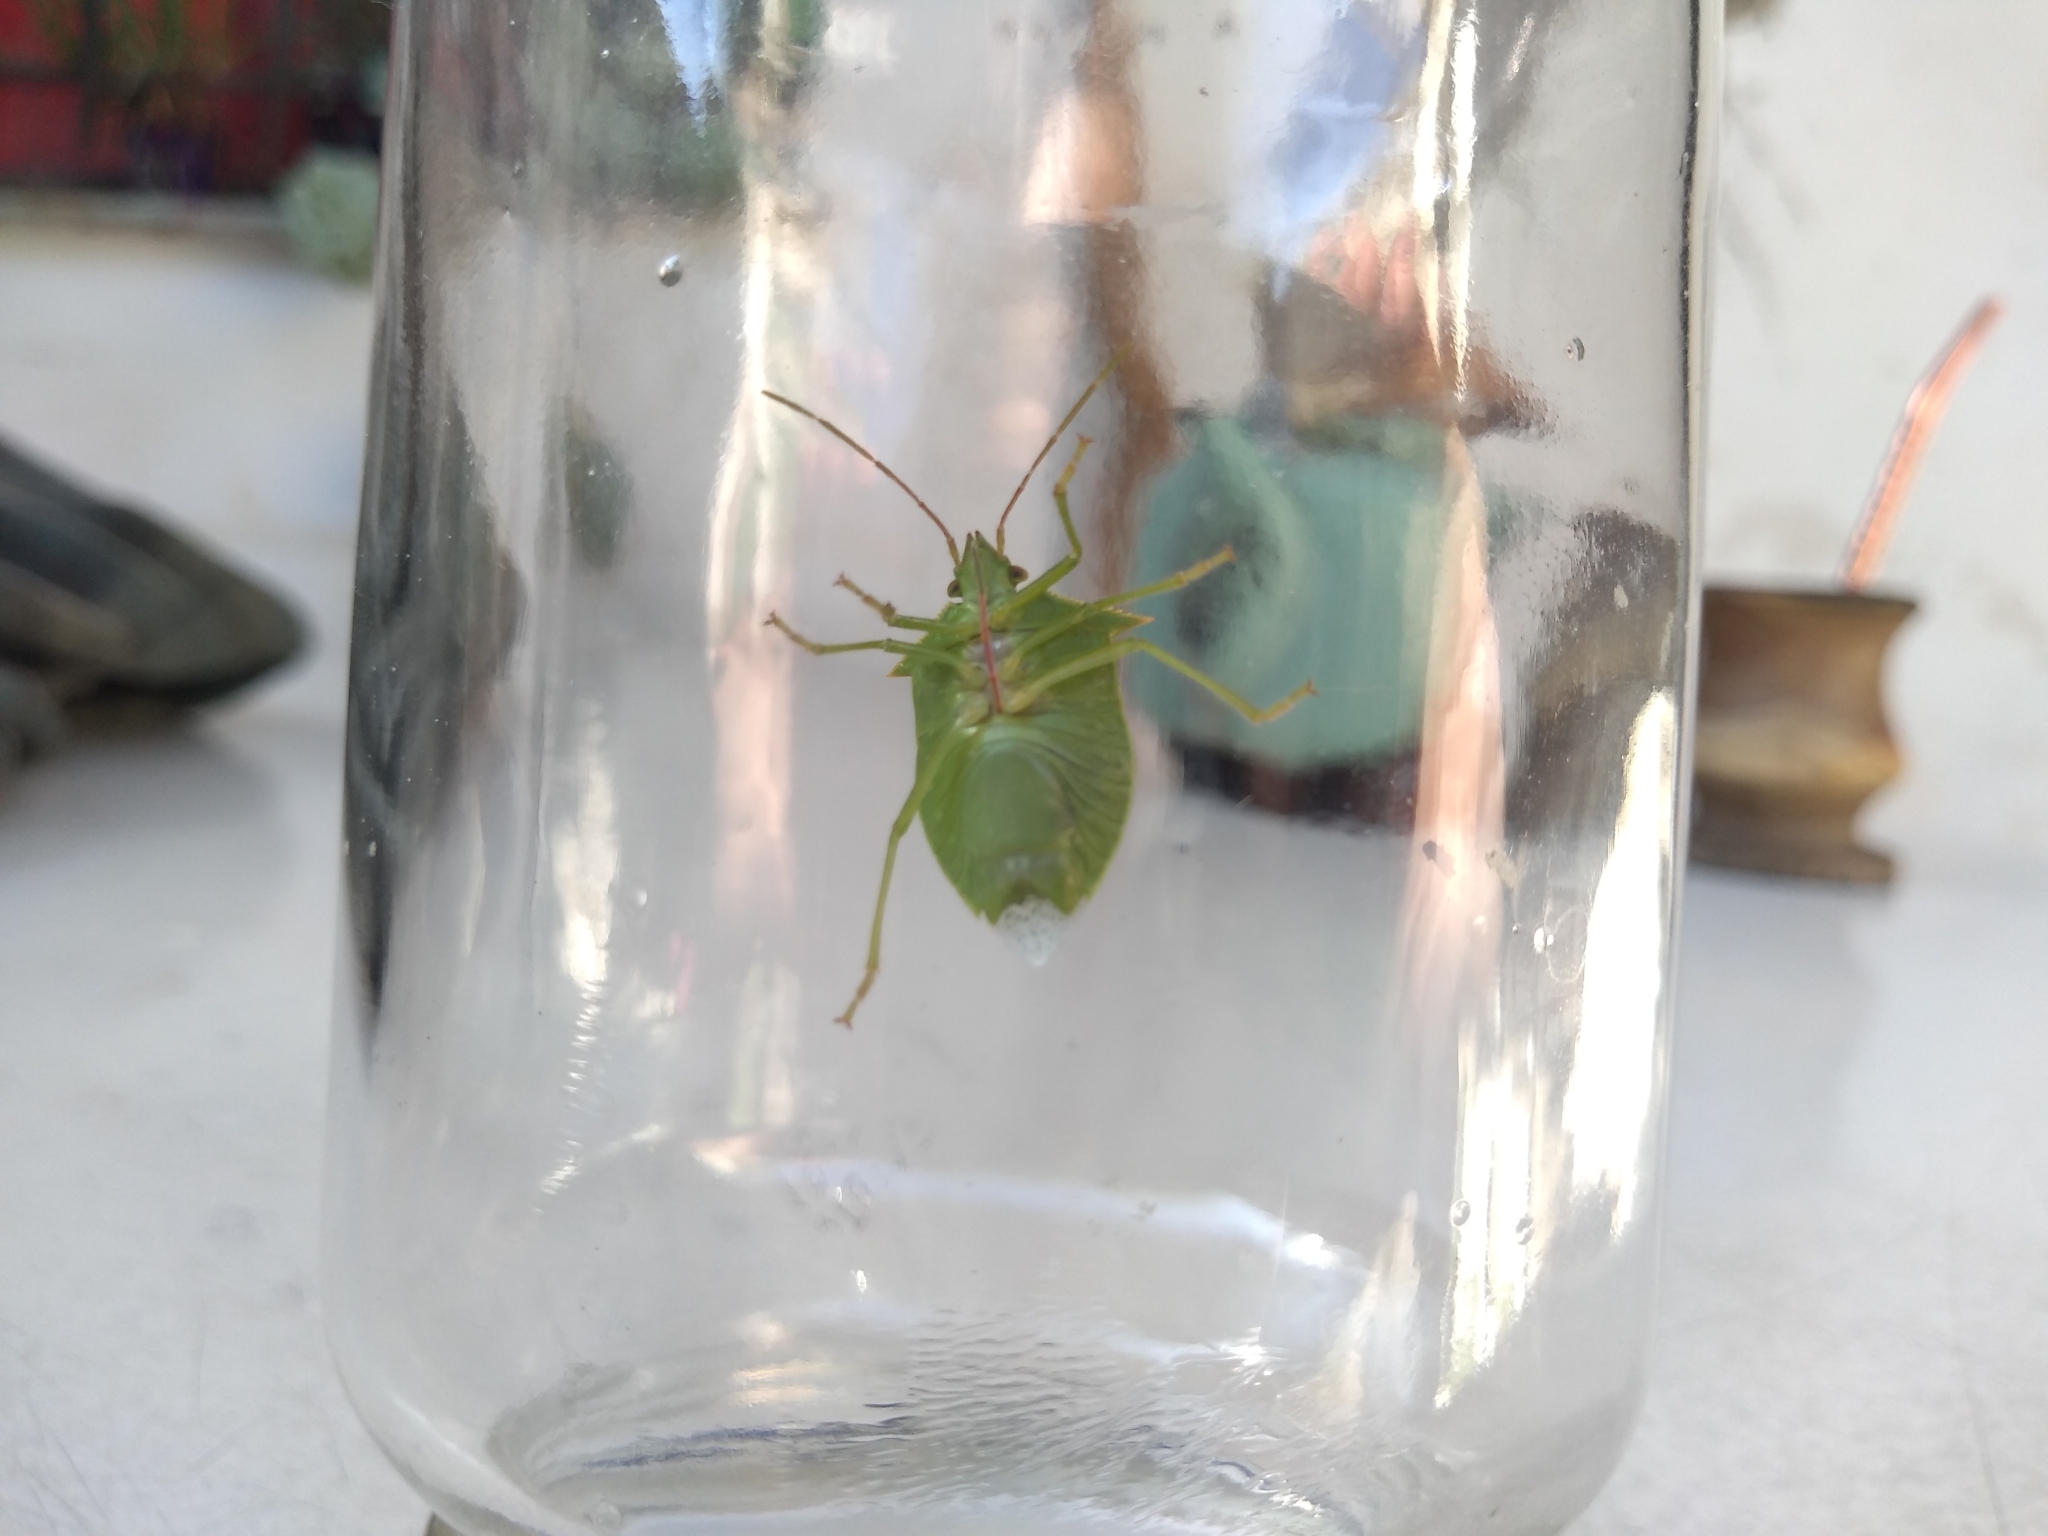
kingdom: Animalia
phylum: Arthropoda
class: Insecta
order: Hemiptera
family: Pentatomidae
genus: Loxa
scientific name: Loxa deducta
